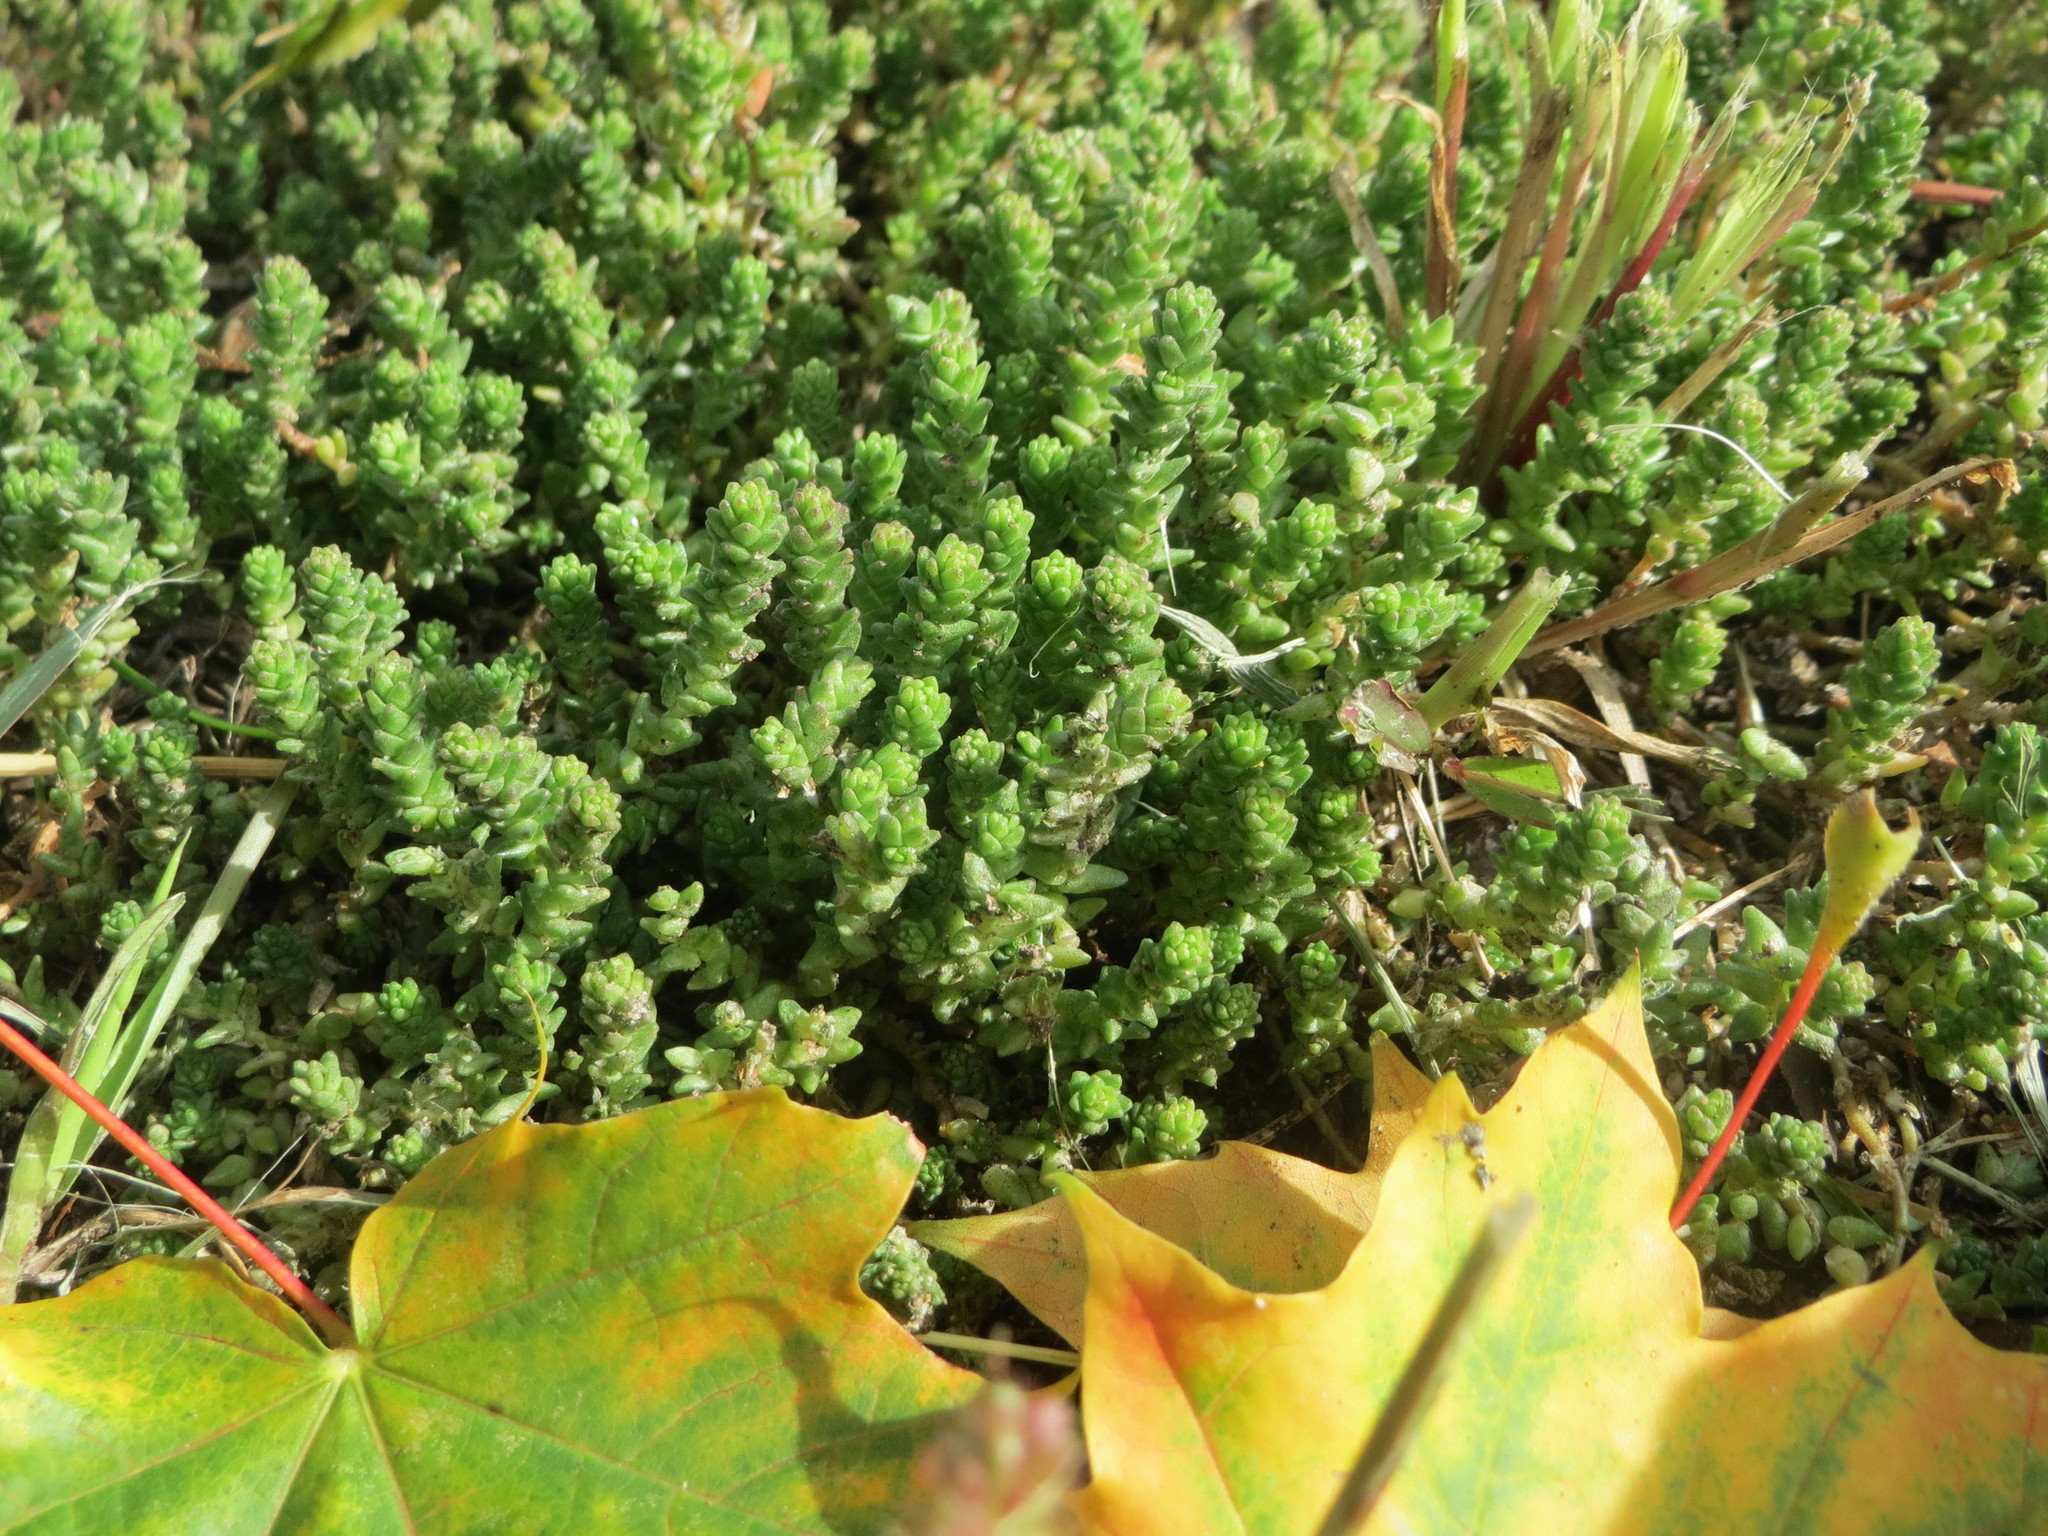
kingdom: Plantae
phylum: Tracheophyta
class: Magnoliopsida
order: Saxifragales
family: Crassulaceae
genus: Sedum
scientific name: Sedum acre
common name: Biting stonecrop
